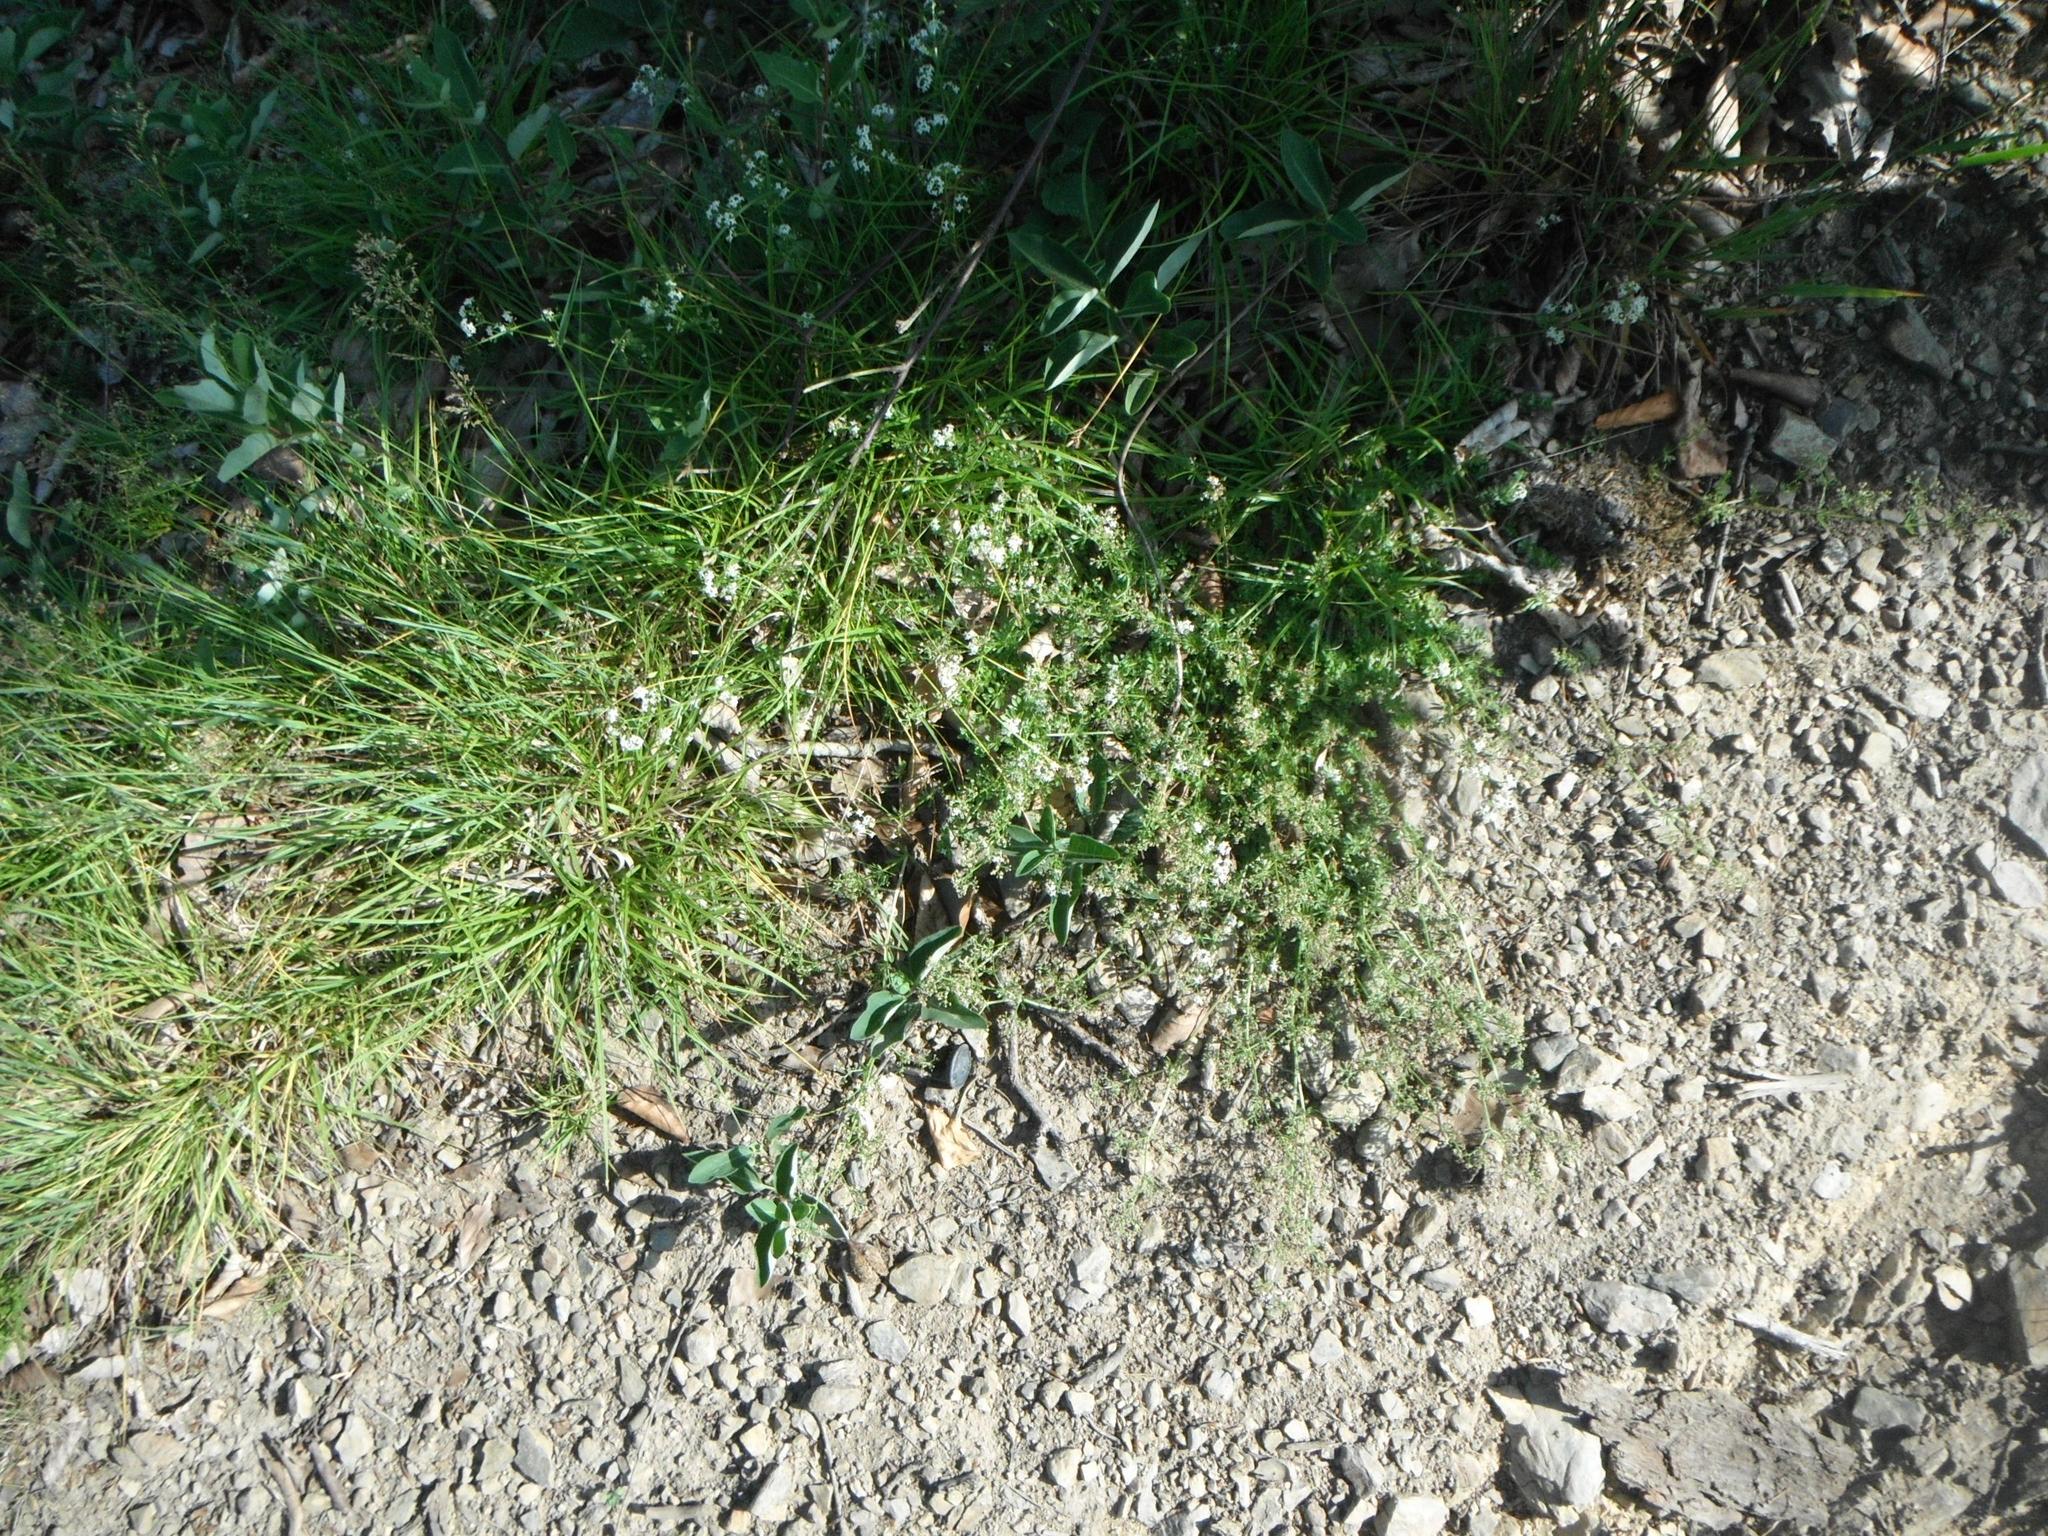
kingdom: Plantae
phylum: Tracheophyta
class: Magnoliopsida
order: Gentianales
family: Rubiaceae
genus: Galium
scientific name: Galium saxatile
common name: Heath bedstraw
